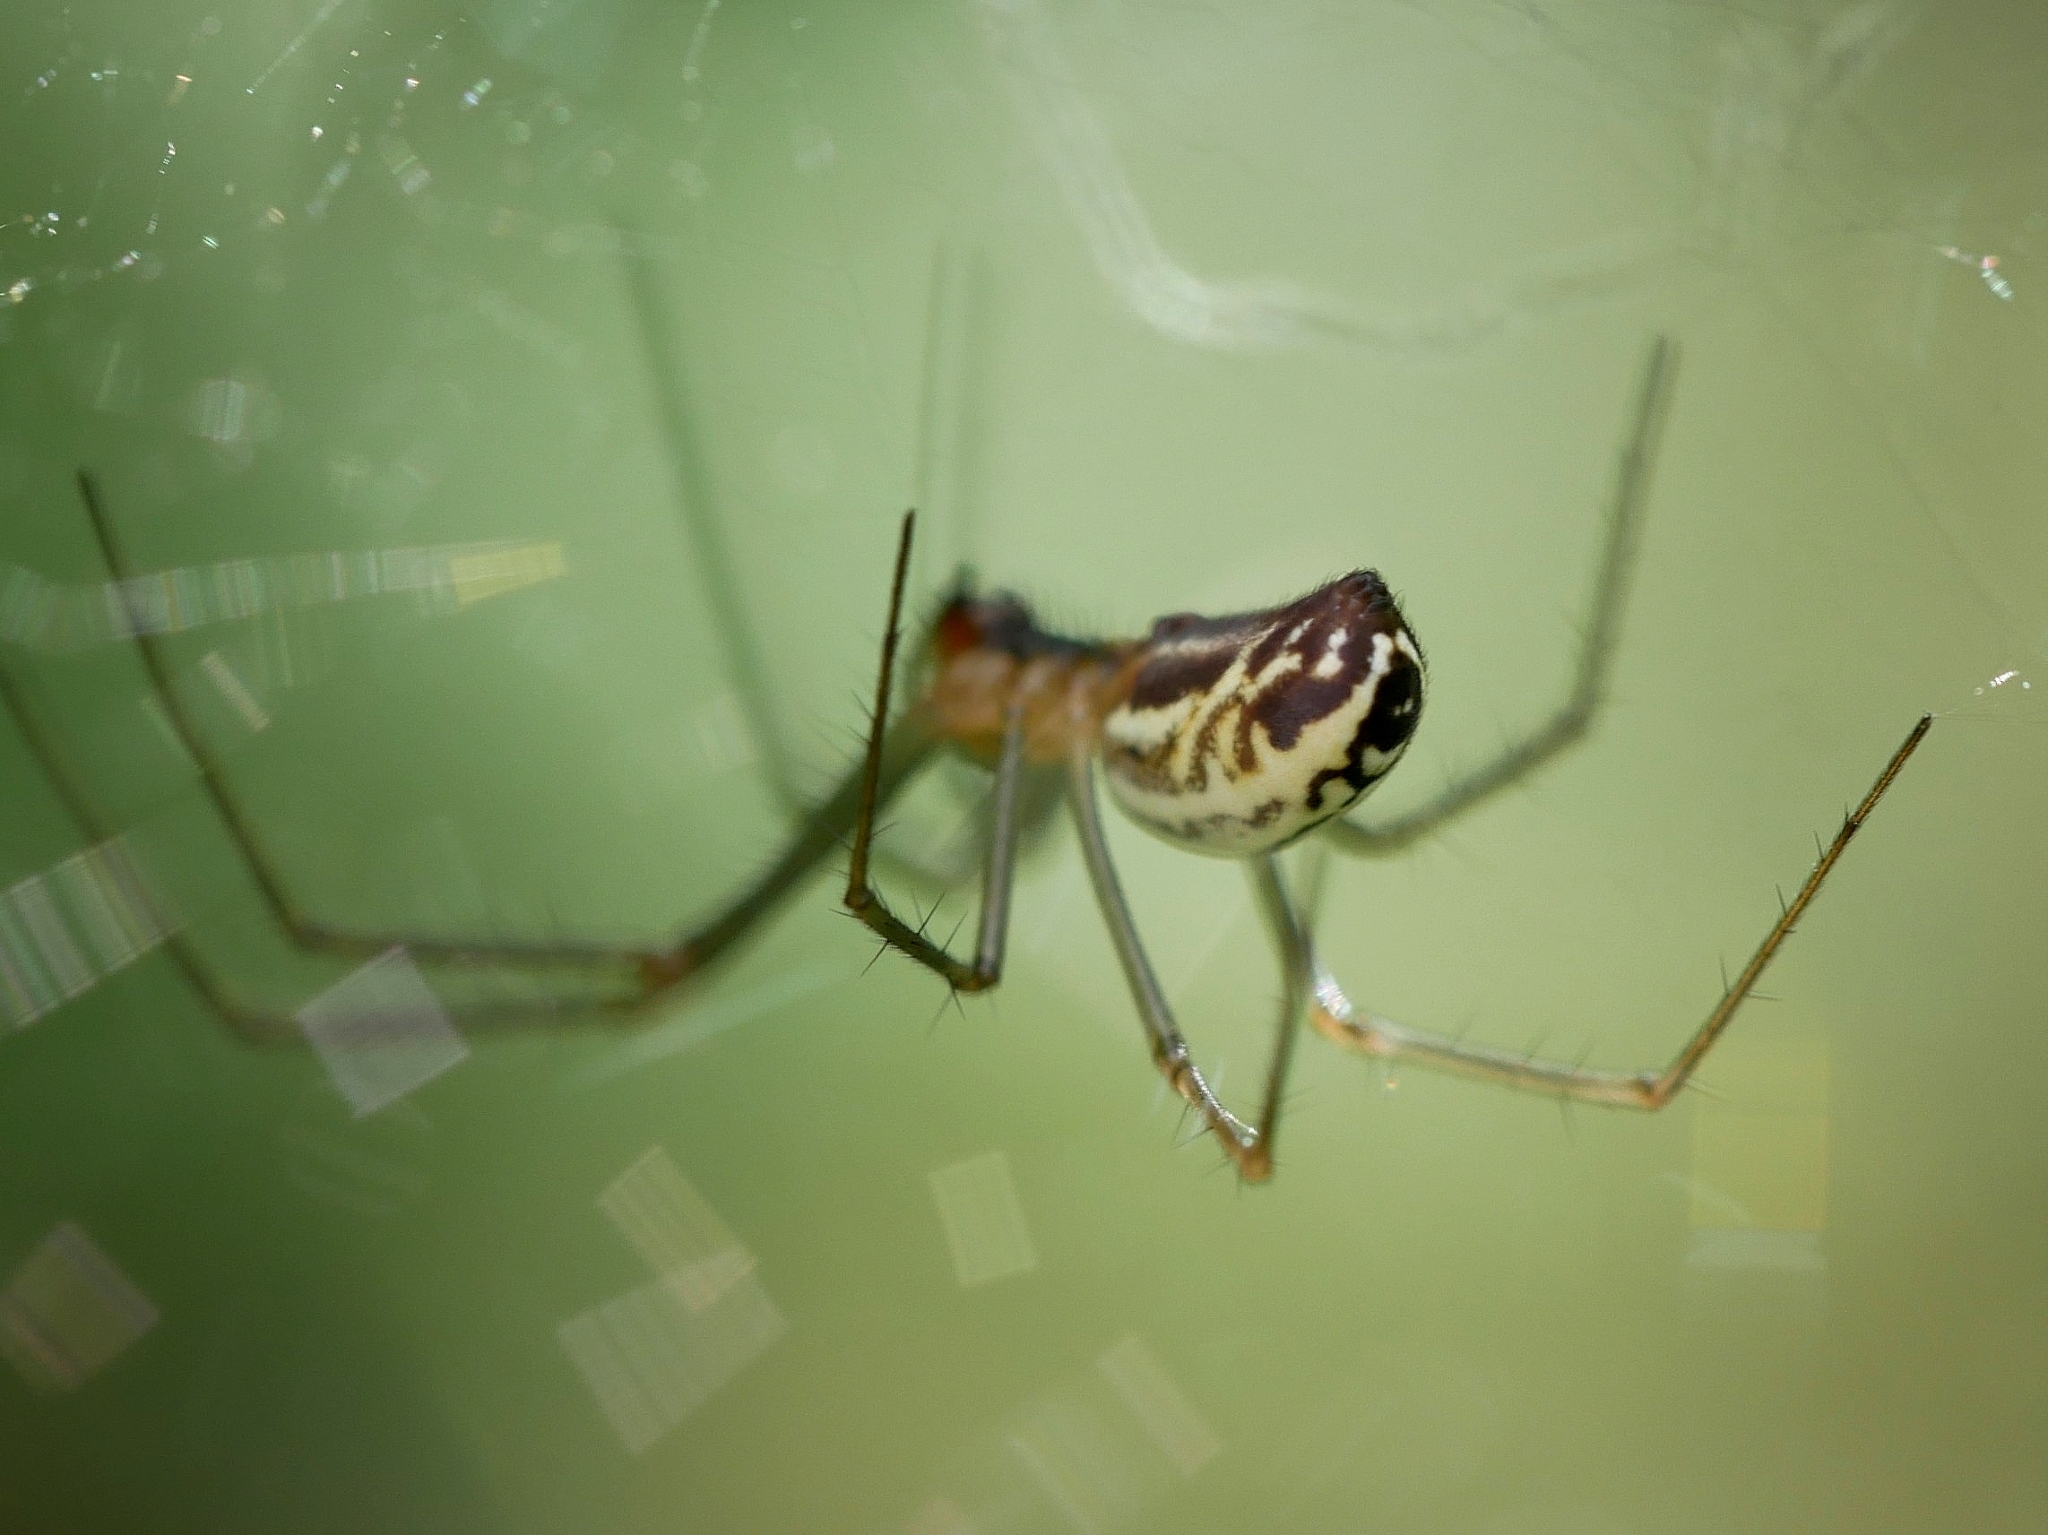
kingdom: Animalia
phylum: Arthropoda
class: Arachnida
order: Araneae
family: Linyphiidae
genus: Neriene
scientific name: Neriene litigiosa
